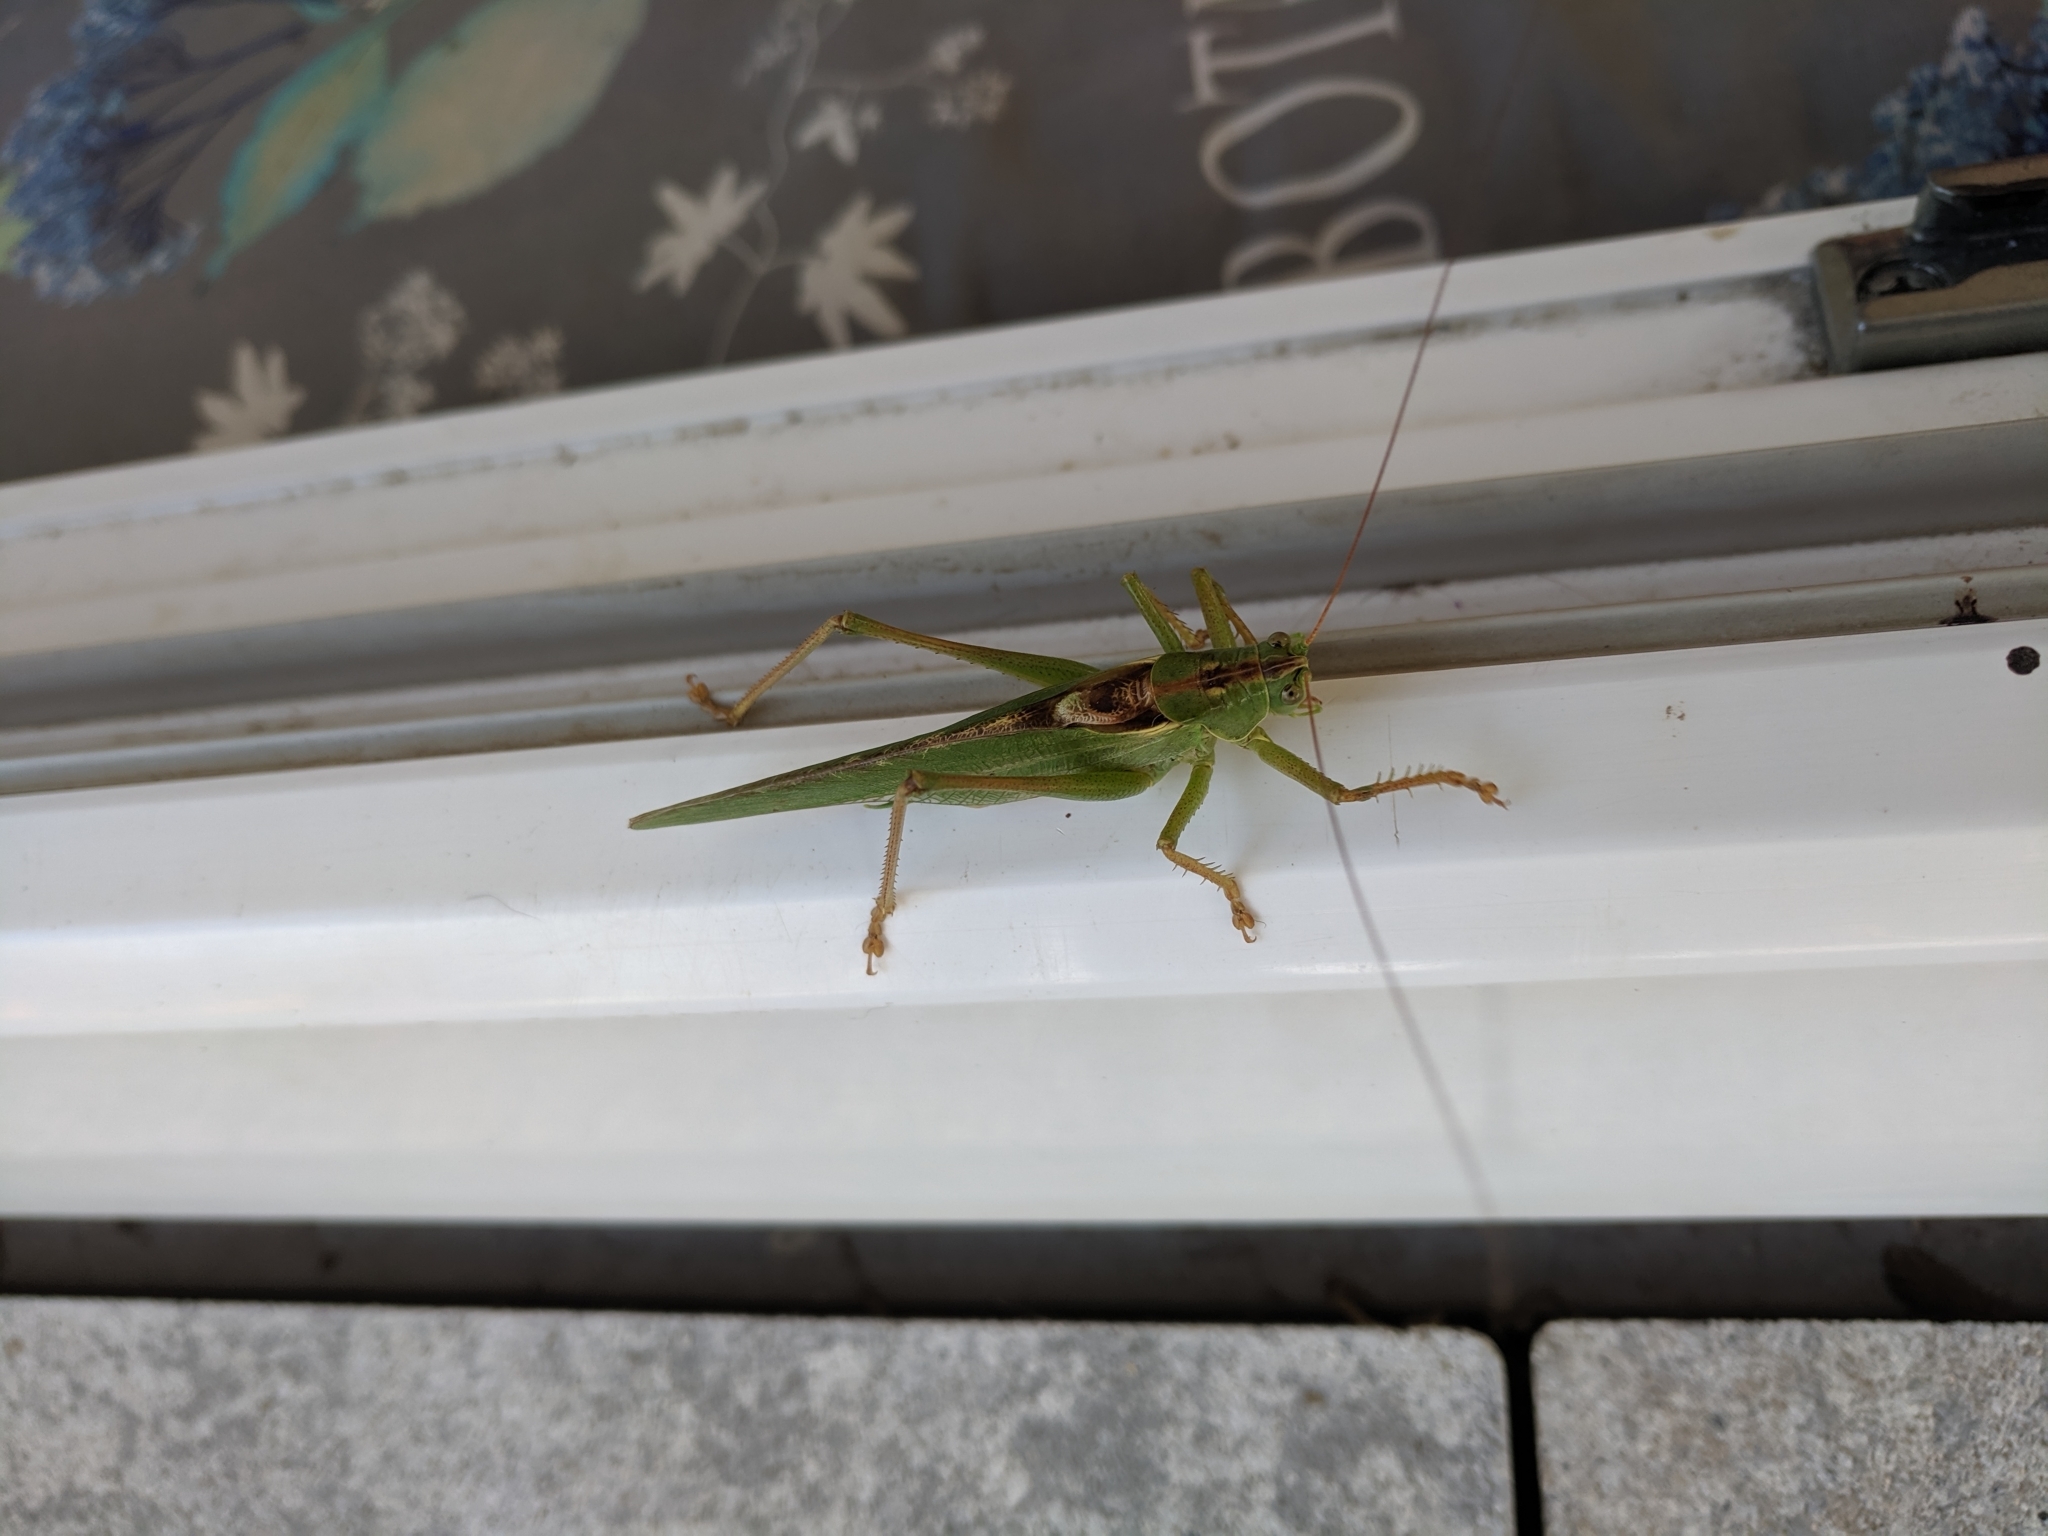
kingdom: Animalia
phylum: Arthropoda
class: Insecta
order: Orthoptera
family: Tettigoniidae
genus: Tettigonia
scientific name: Tettigonia viridissima
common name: Great green bush-cricket
